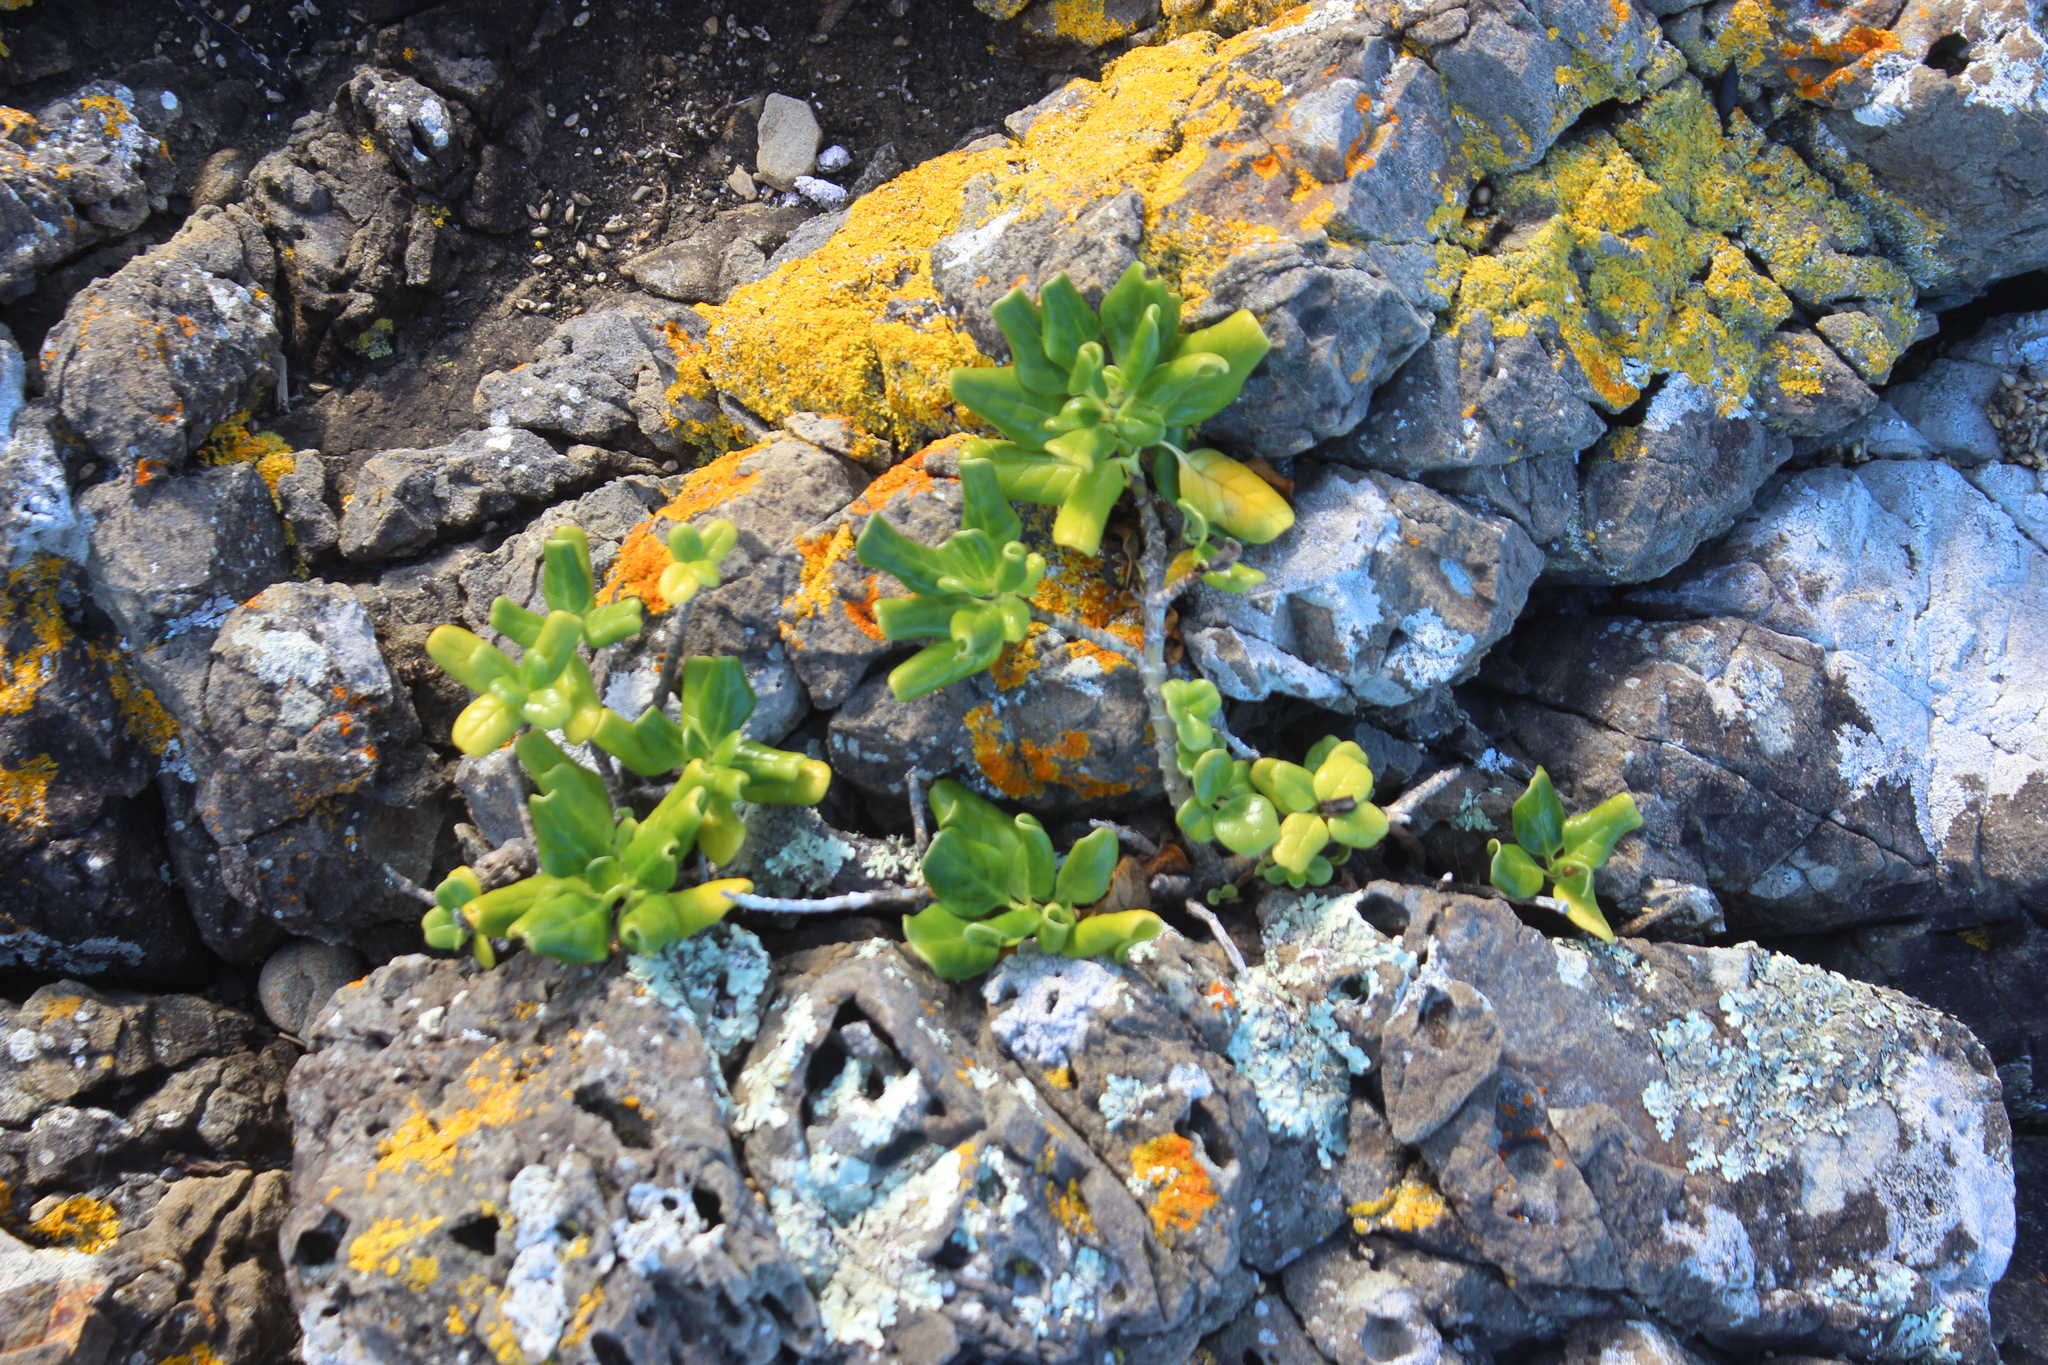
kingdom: Plantae
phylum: Tracheophyta
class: Magnoliopsida
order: Gentianales
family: Rubiaceae
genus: Coprosma
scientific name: Coprosma repens
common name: Tree bedstraw
